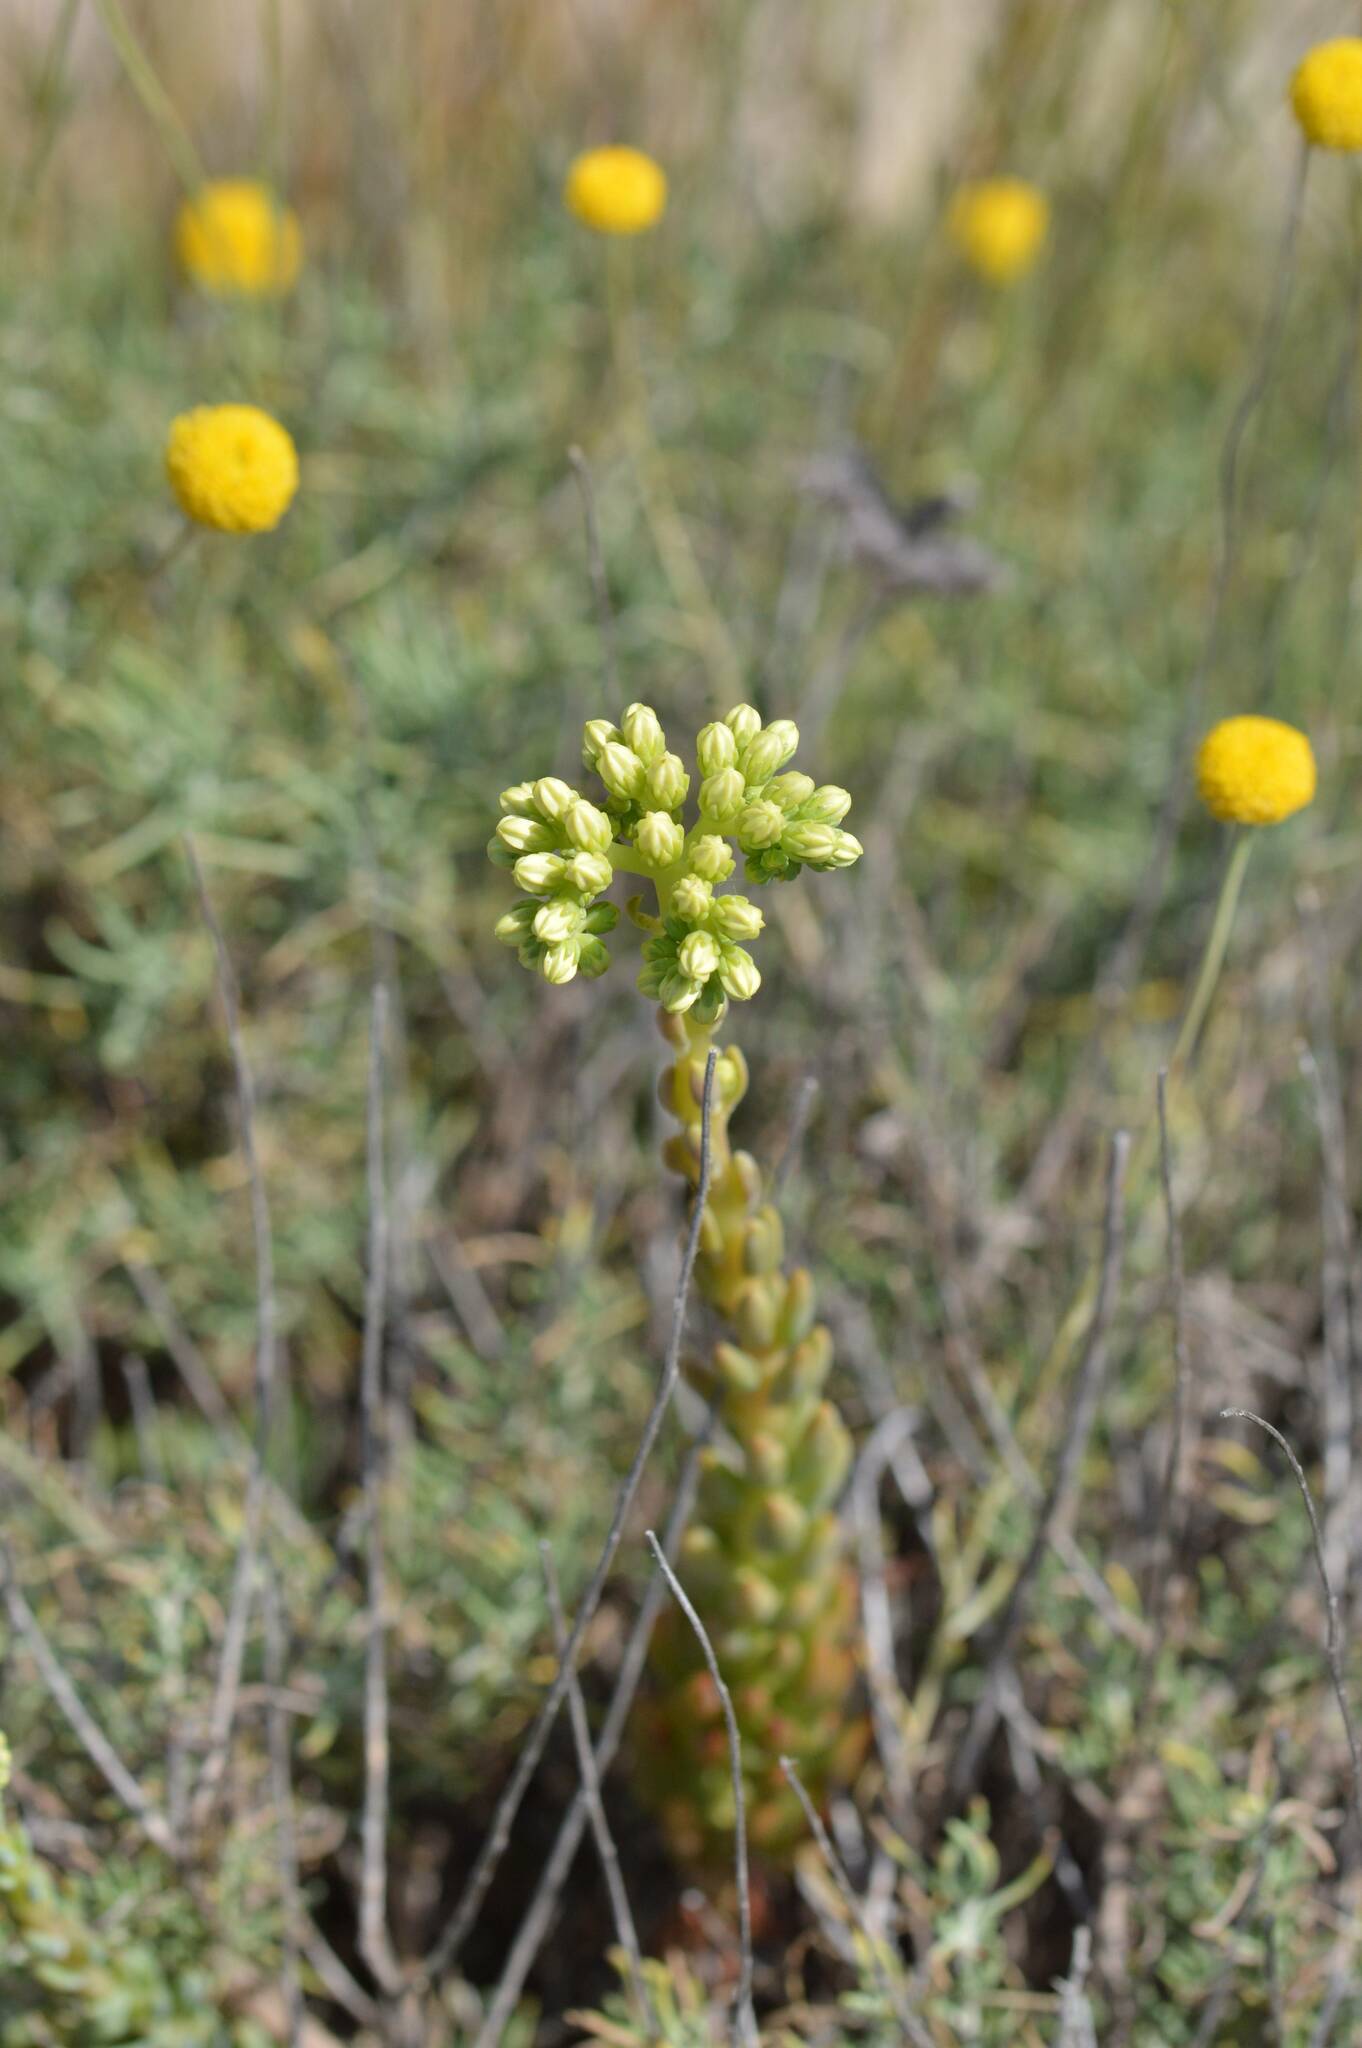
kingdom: Plantae
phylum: Tracheophyta
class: Magnoliopsida
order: Saxifragales
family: Crassulaceae
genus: Petrosedum
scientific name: Petrosedum sediforme
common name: Pale stonecrop
